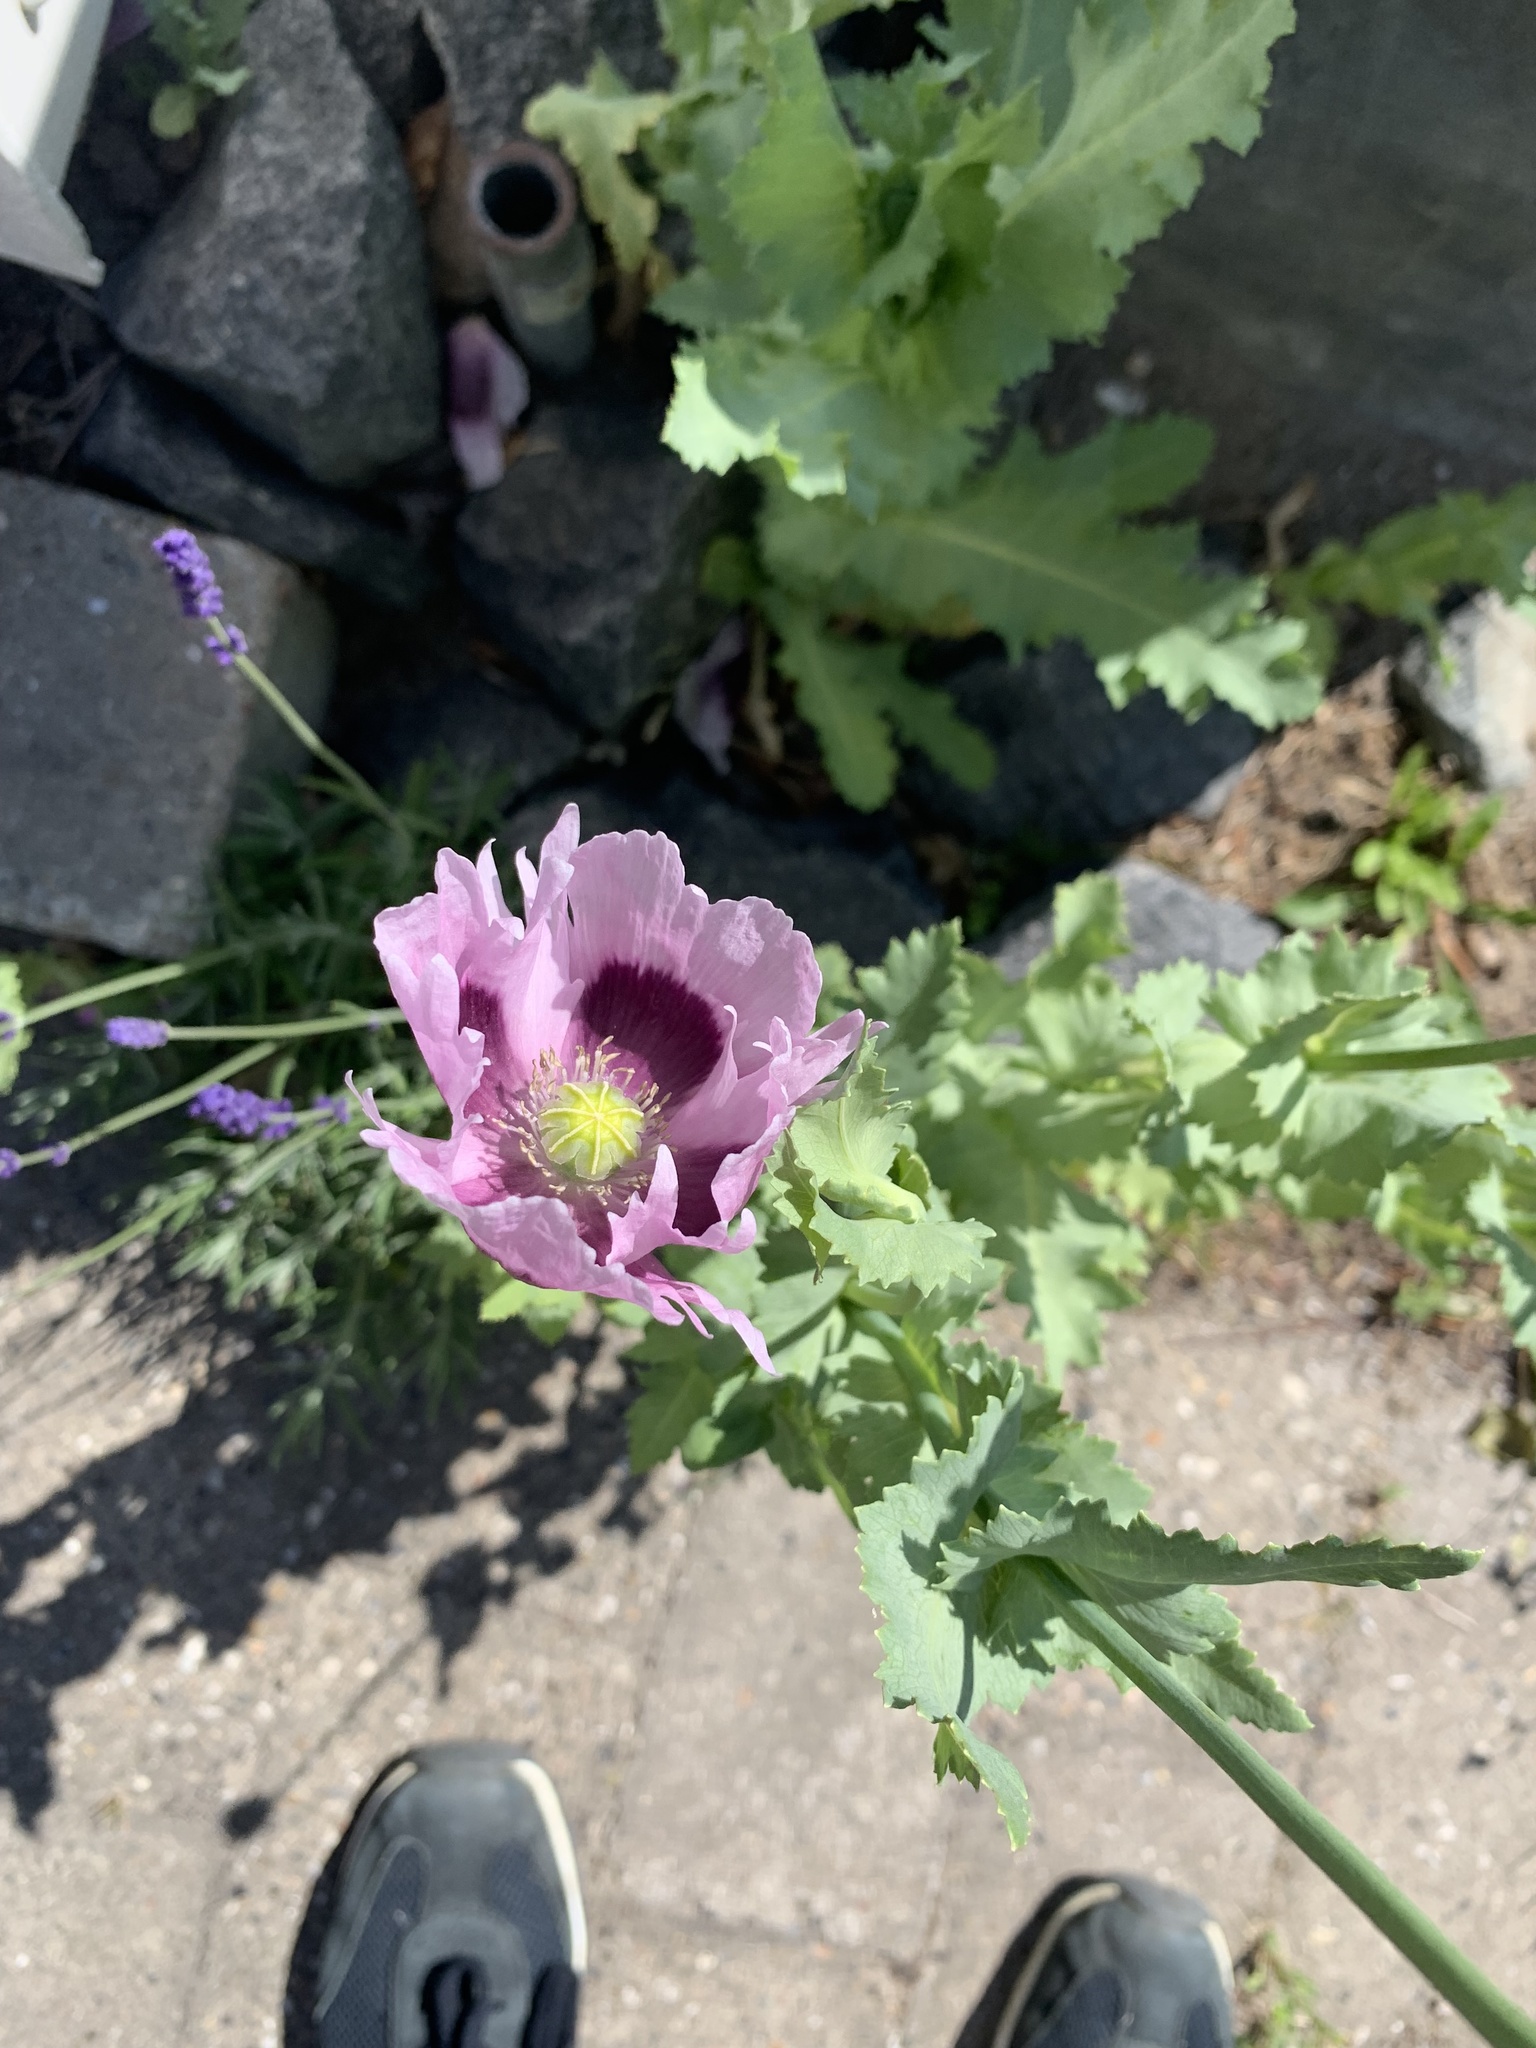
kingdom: Plantae
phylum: Tracheophyta
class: Magnoliopsida
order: Ranunculales
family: Papaveraceae
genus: Papaver
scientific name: Papaver somniferum
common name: Opium poppy
